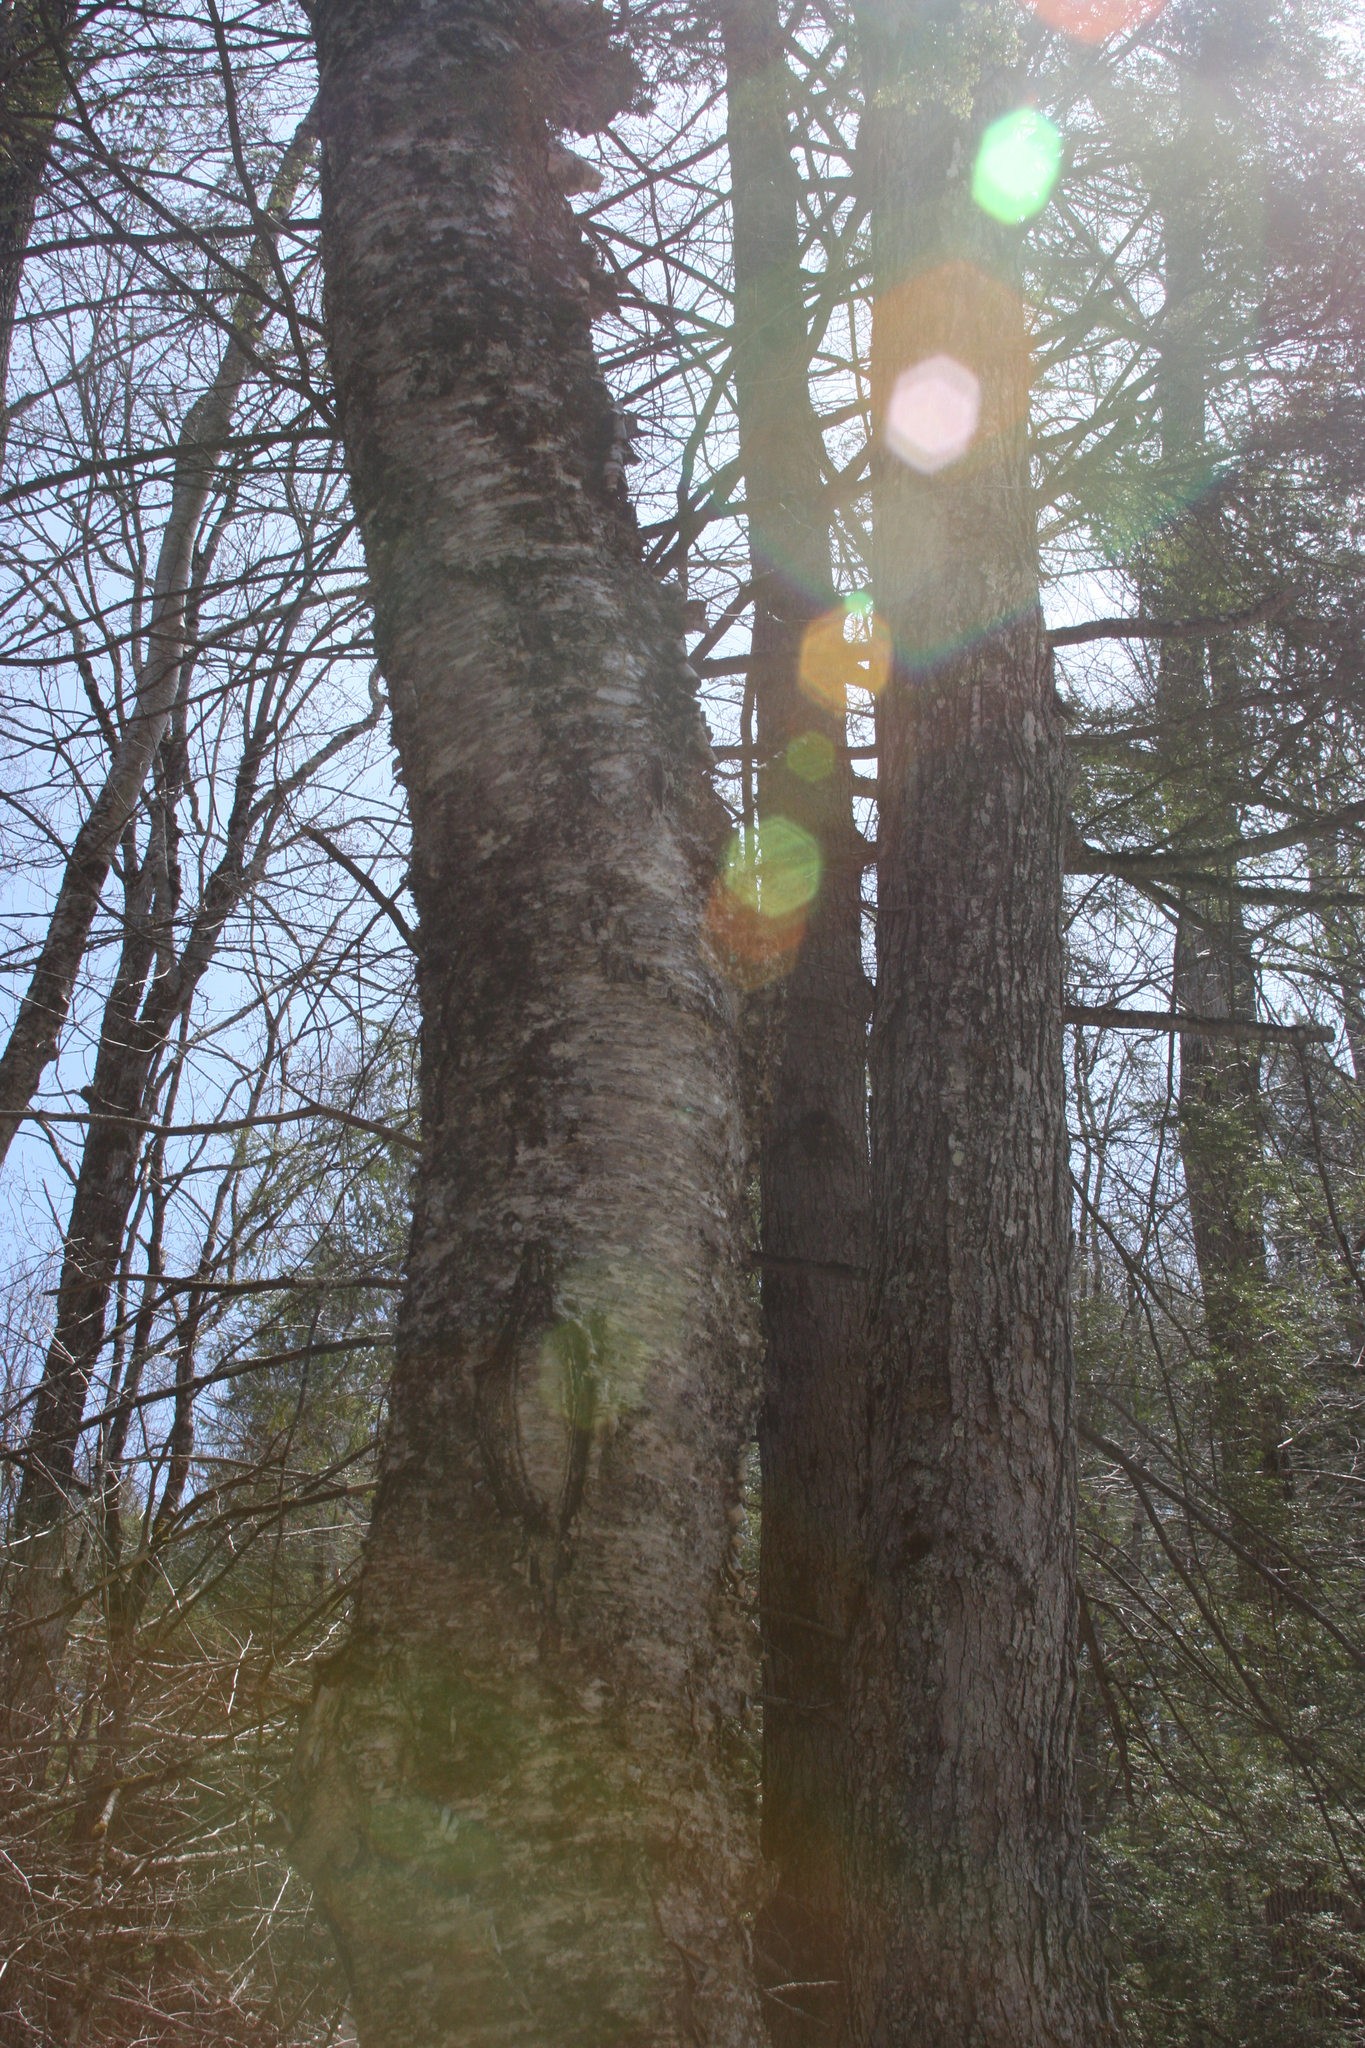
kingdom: Plantae
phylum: Tracheophyta
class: Magnoliopsida
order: Fagales
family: Betulaceae
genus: Betula
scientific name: Betula alleghaniensis
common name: Yellow birch
